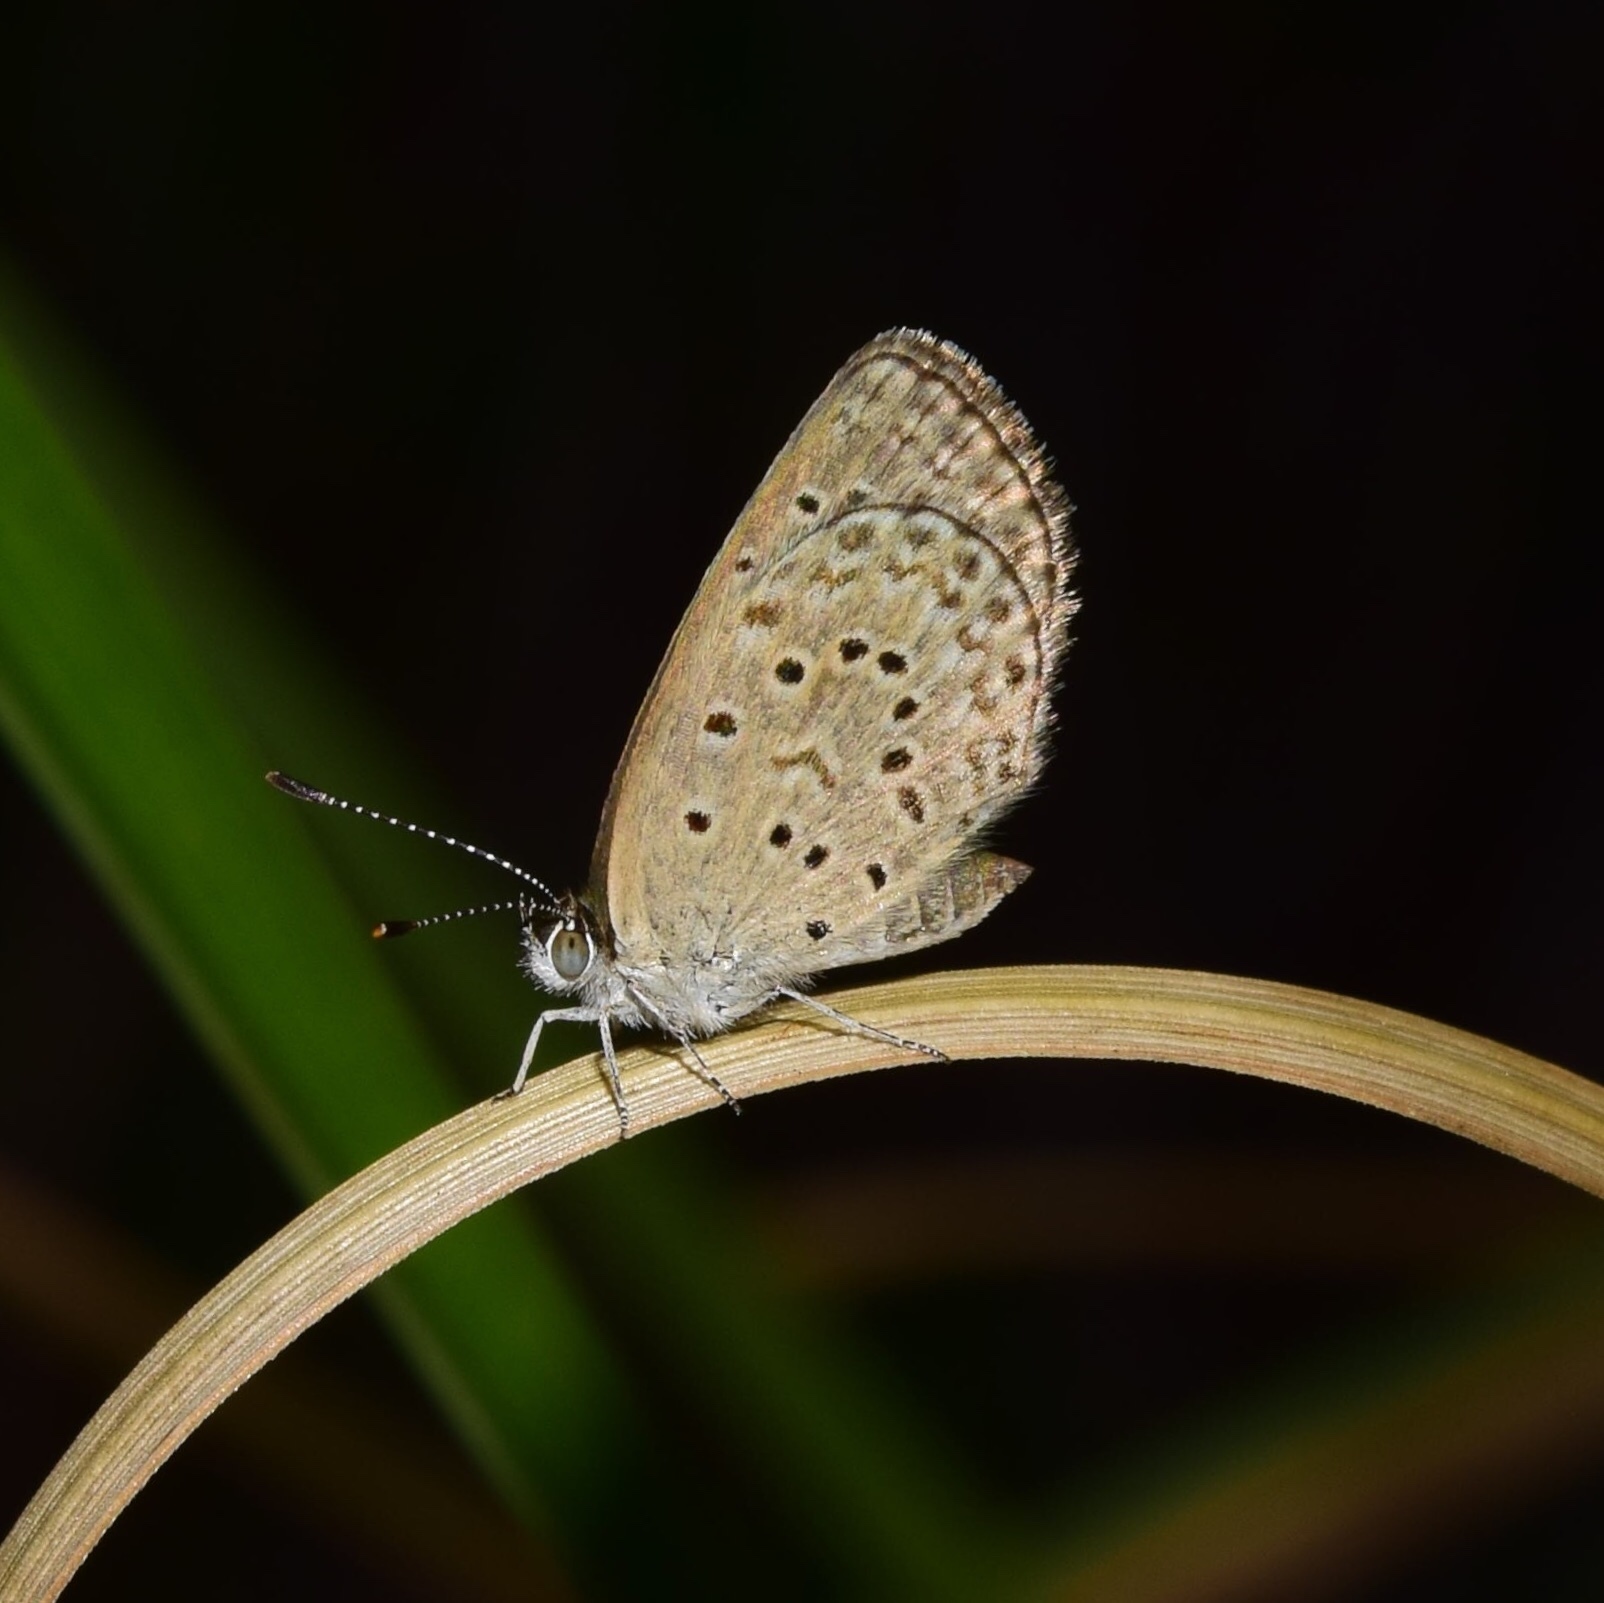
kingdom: Animalia
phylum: Arthropoda
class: Insecta
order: Lepidoptera
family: Lycaenidae
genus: Zizeeria
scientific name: Zizeeria knysna
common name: African grass blue
